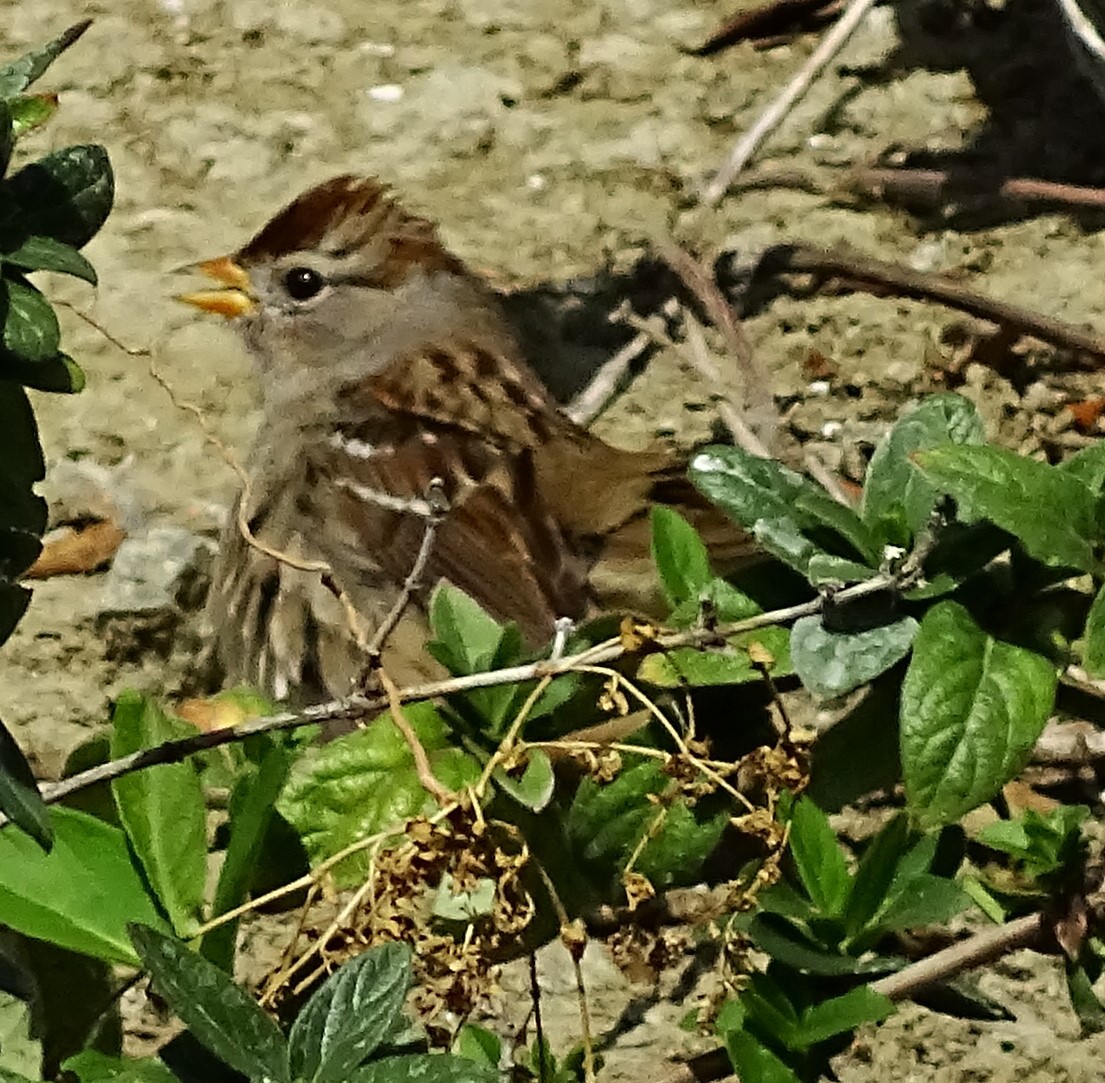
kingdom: Animalia
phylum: Chordata
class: Aves
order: Passeriformes
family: Passerellidae
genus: Zonotrichia
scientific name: Zonotrichia leucophrys
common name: White-crowned sparrow
